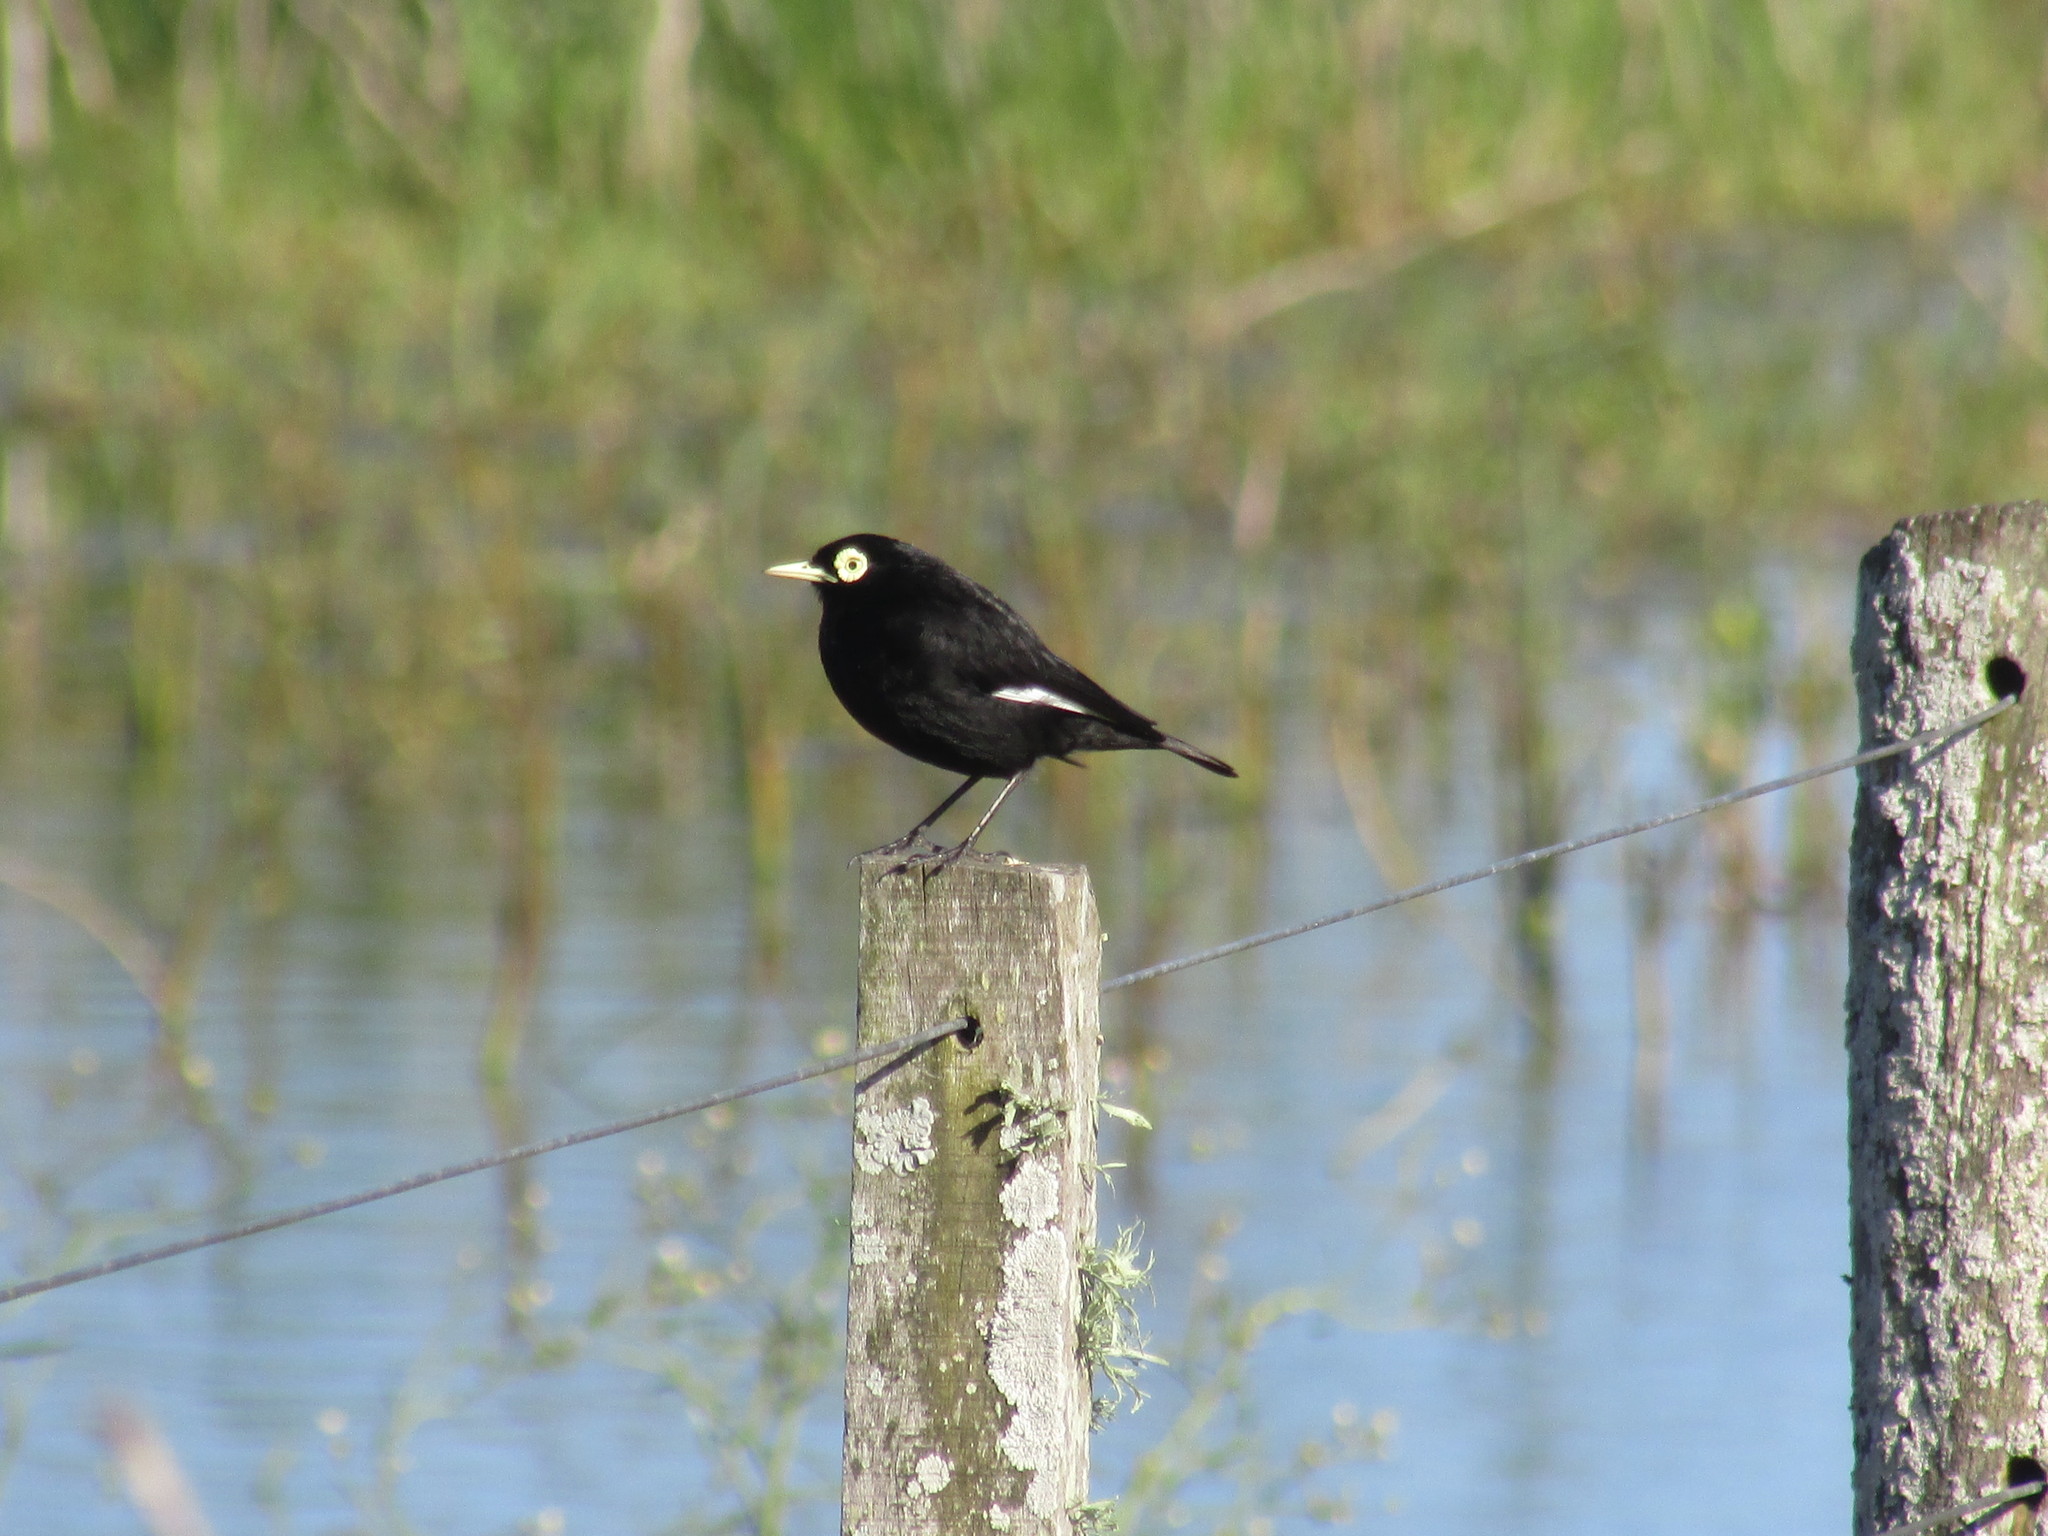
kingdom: Animalia
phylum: Chordata
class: Aves
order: Passeriformes
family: Tyrannidae
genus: Hymenops
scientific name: Hymenops perspicillatus
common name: Spectacled tyrant
